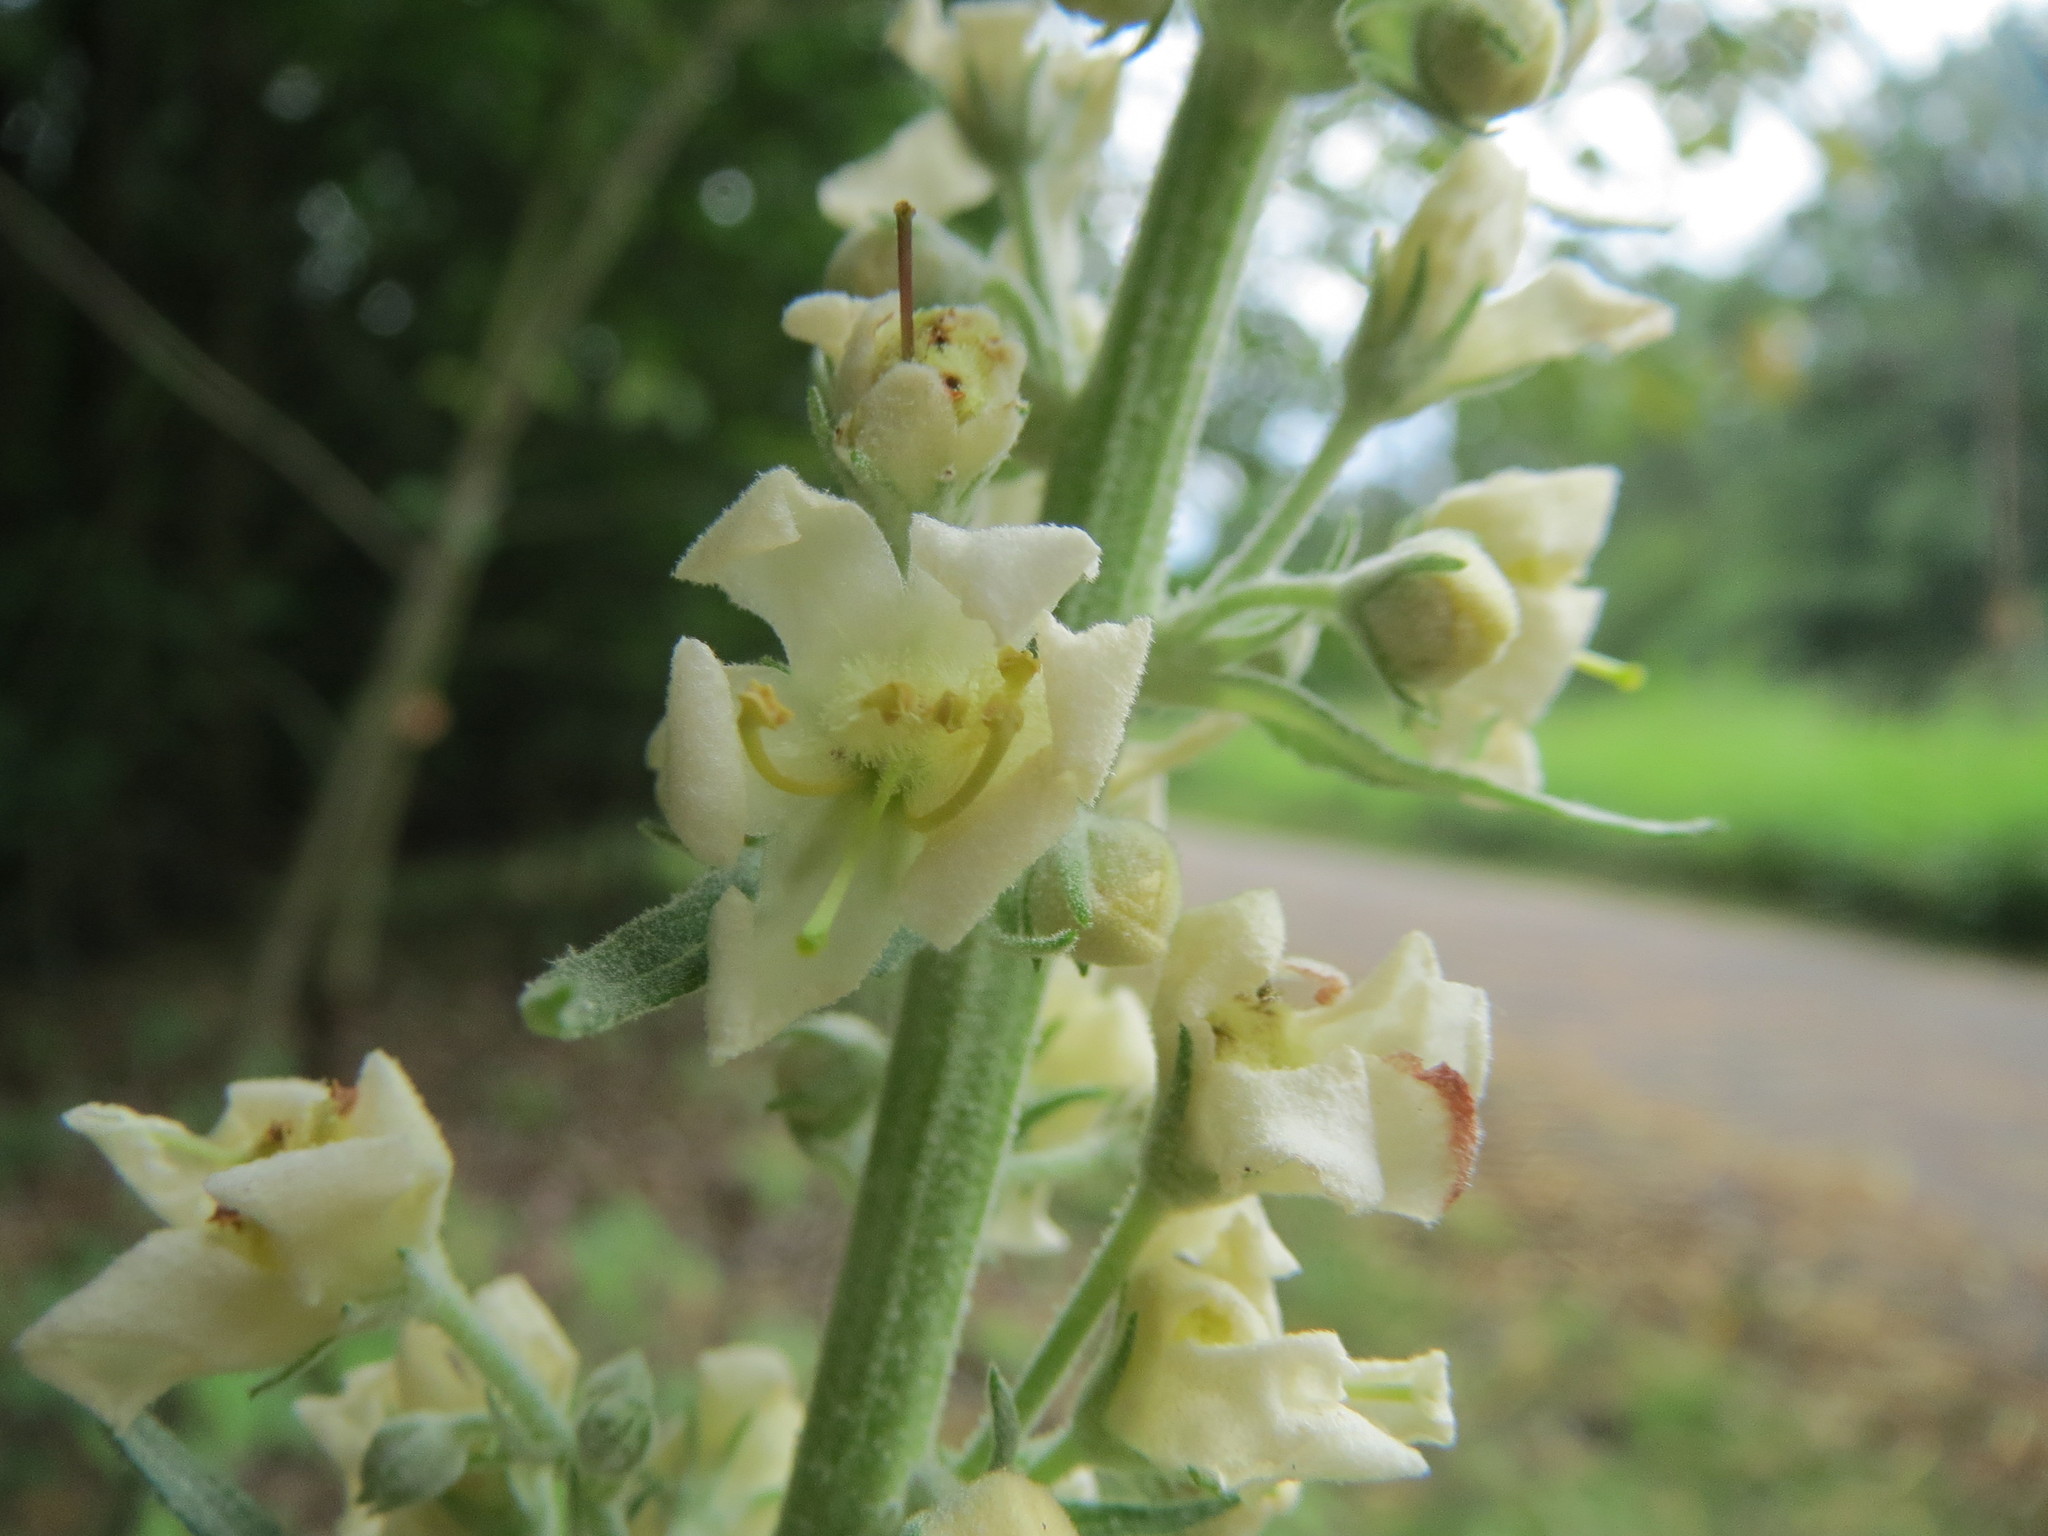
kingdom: Plantae
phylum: Tracheophyta
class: Magnoliopsida
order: Lamiales
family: Scrophulariaceae
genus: Verbascum
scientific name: Verbascum lychnitis
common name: White mullein
